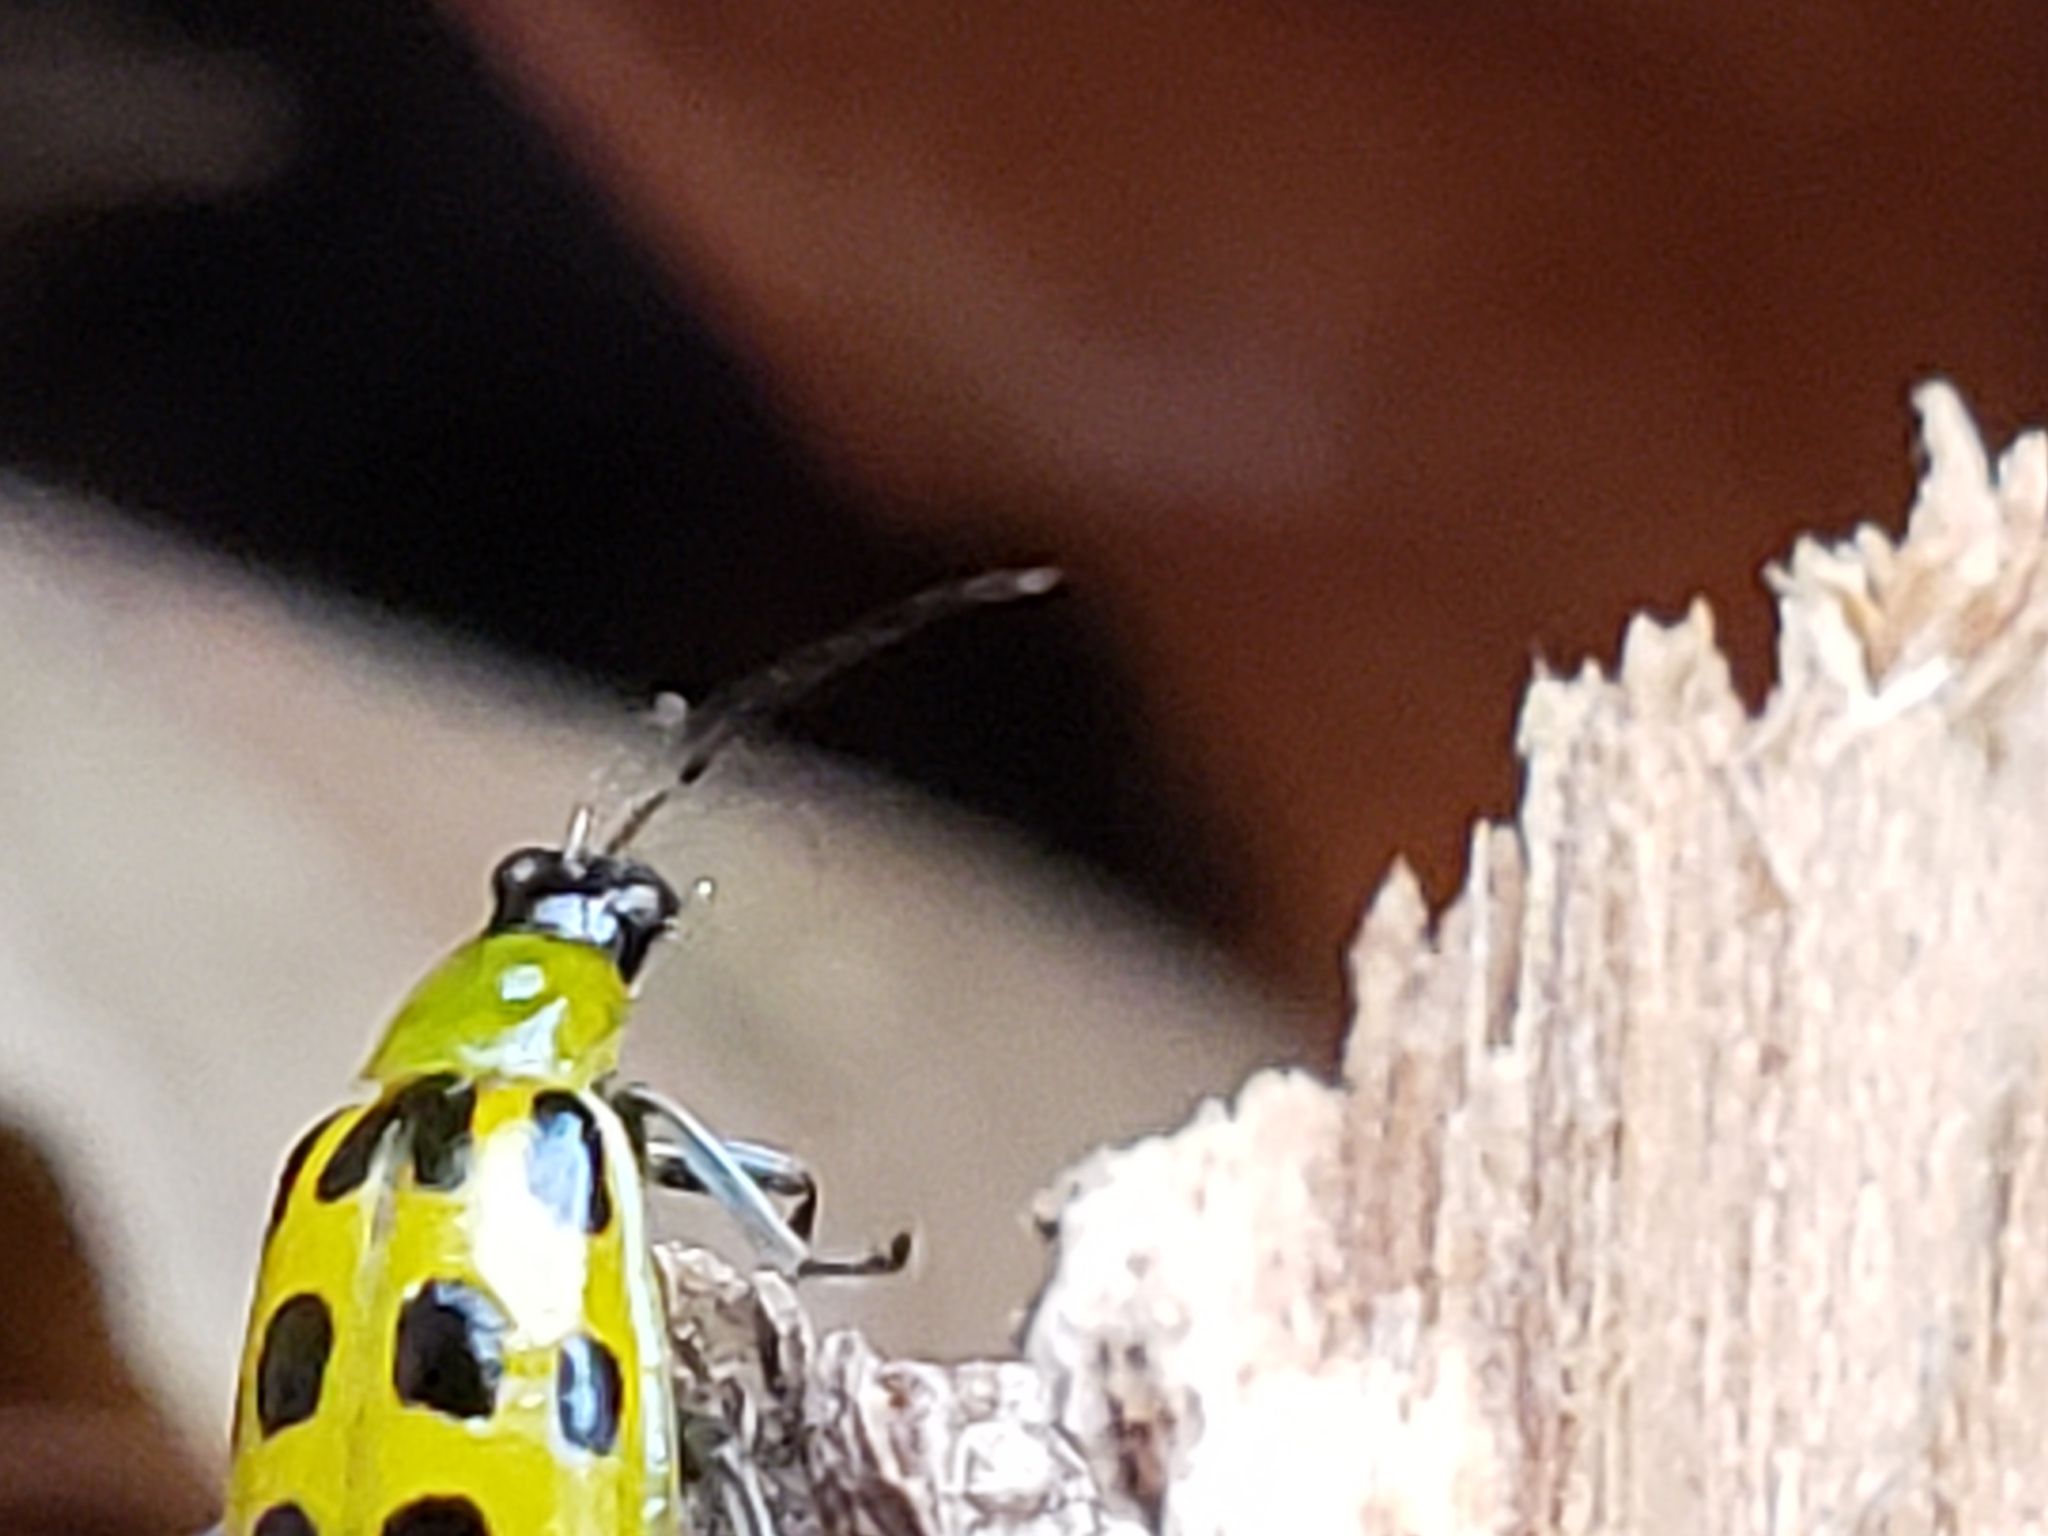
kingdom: Animalia
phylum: Arthropoda
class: Insecta
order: Coleoptera
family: Chrysomelidae
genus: Diabrotica
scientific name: Diabrotica undecimpunctata
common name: Spotted cucumber beetle
